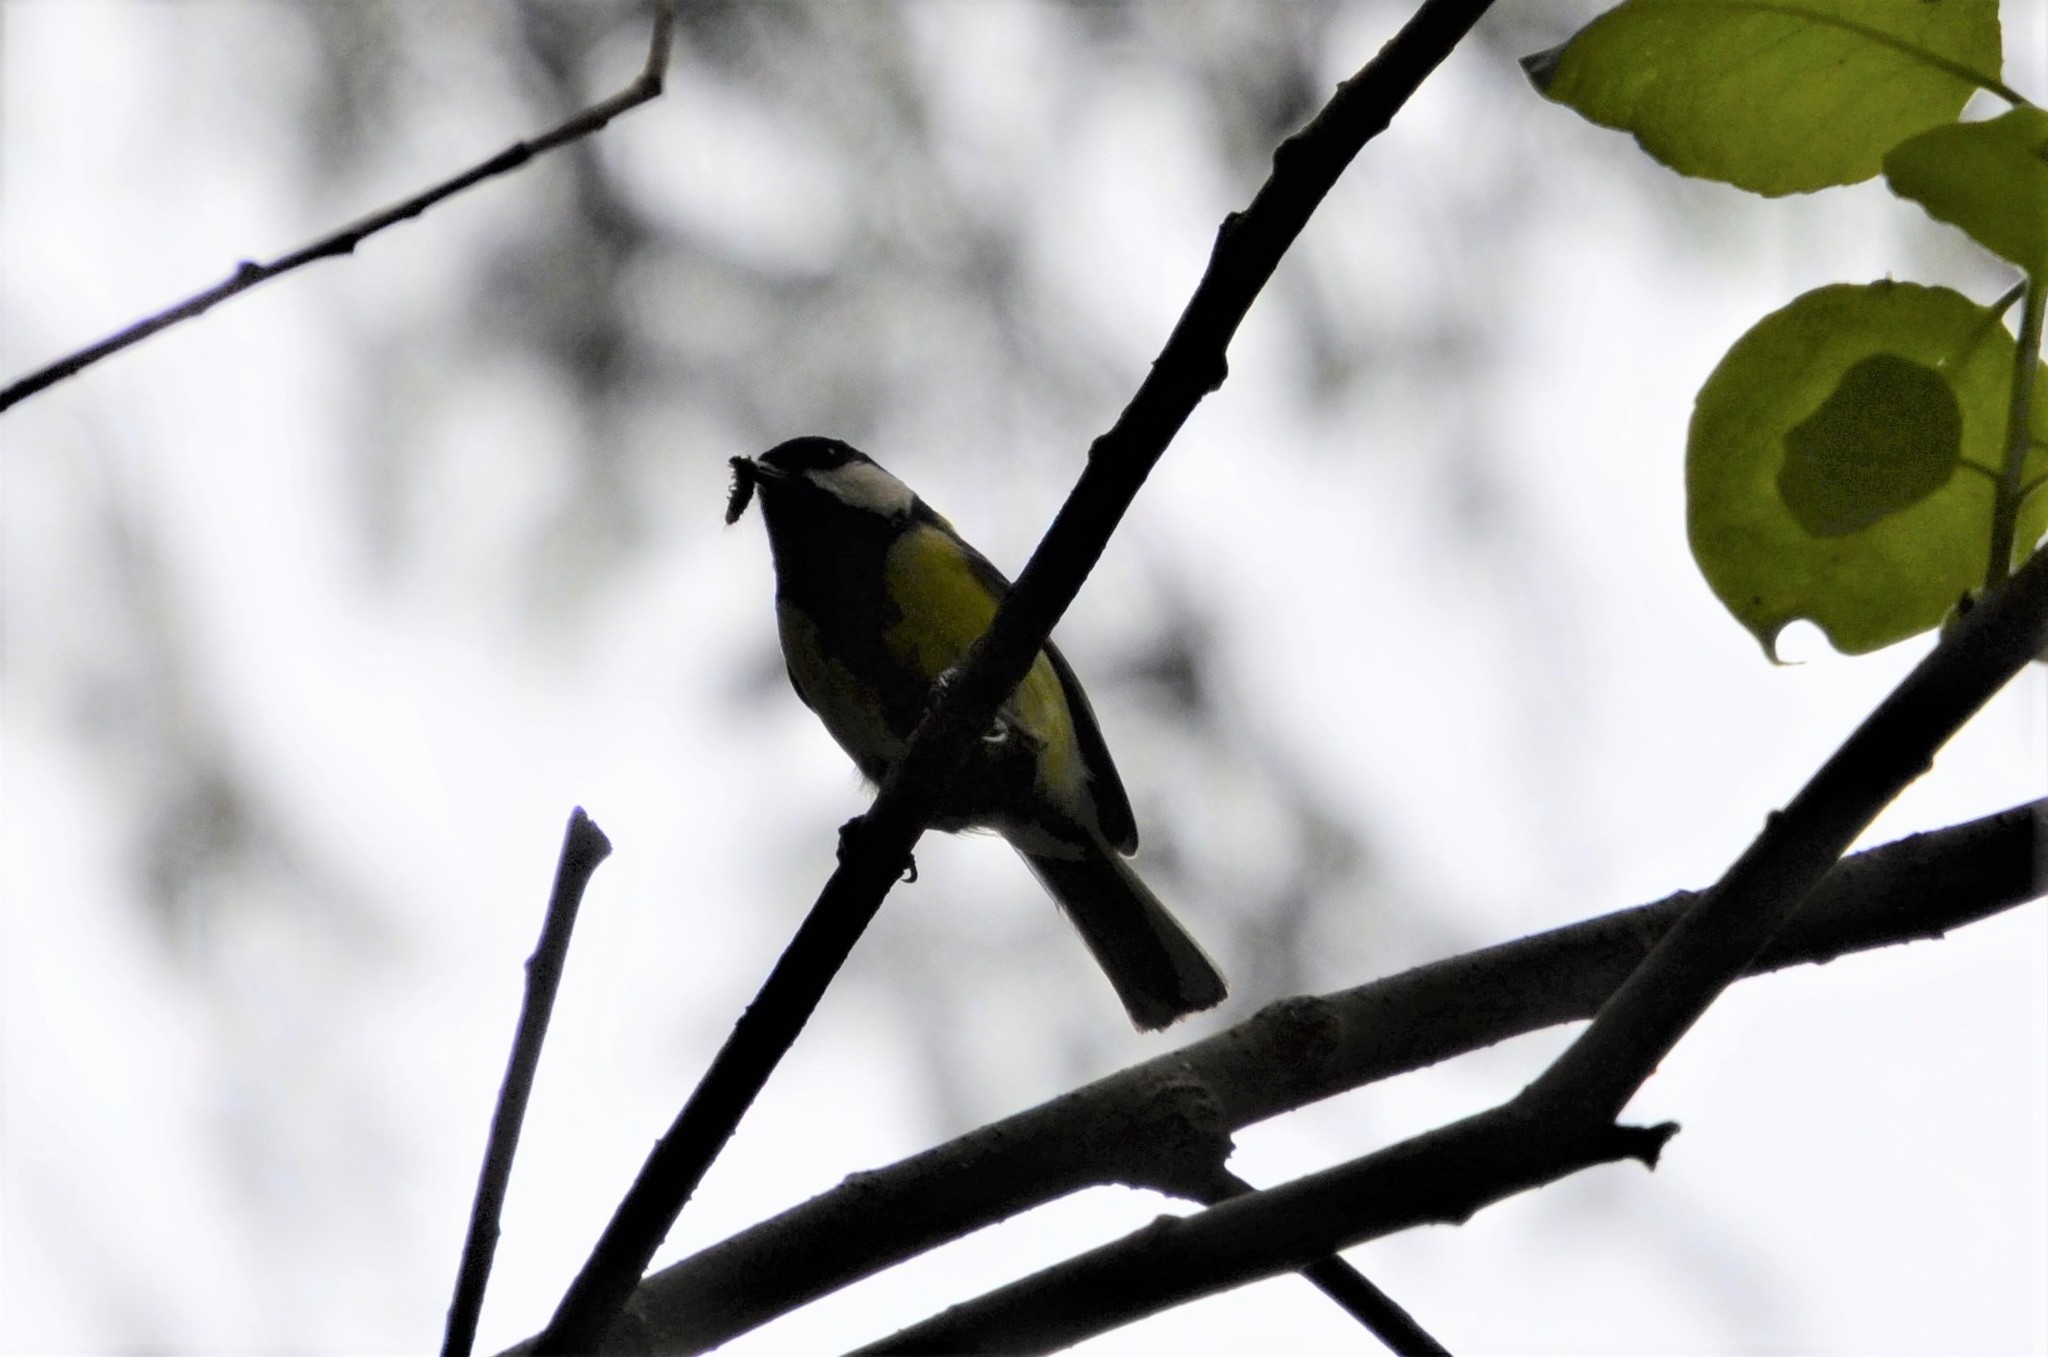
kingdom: Animalia
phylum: Chordata
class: Aves
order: Passeriformes
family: Paridae
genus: Parus
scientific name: Parus major
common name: Great tit
